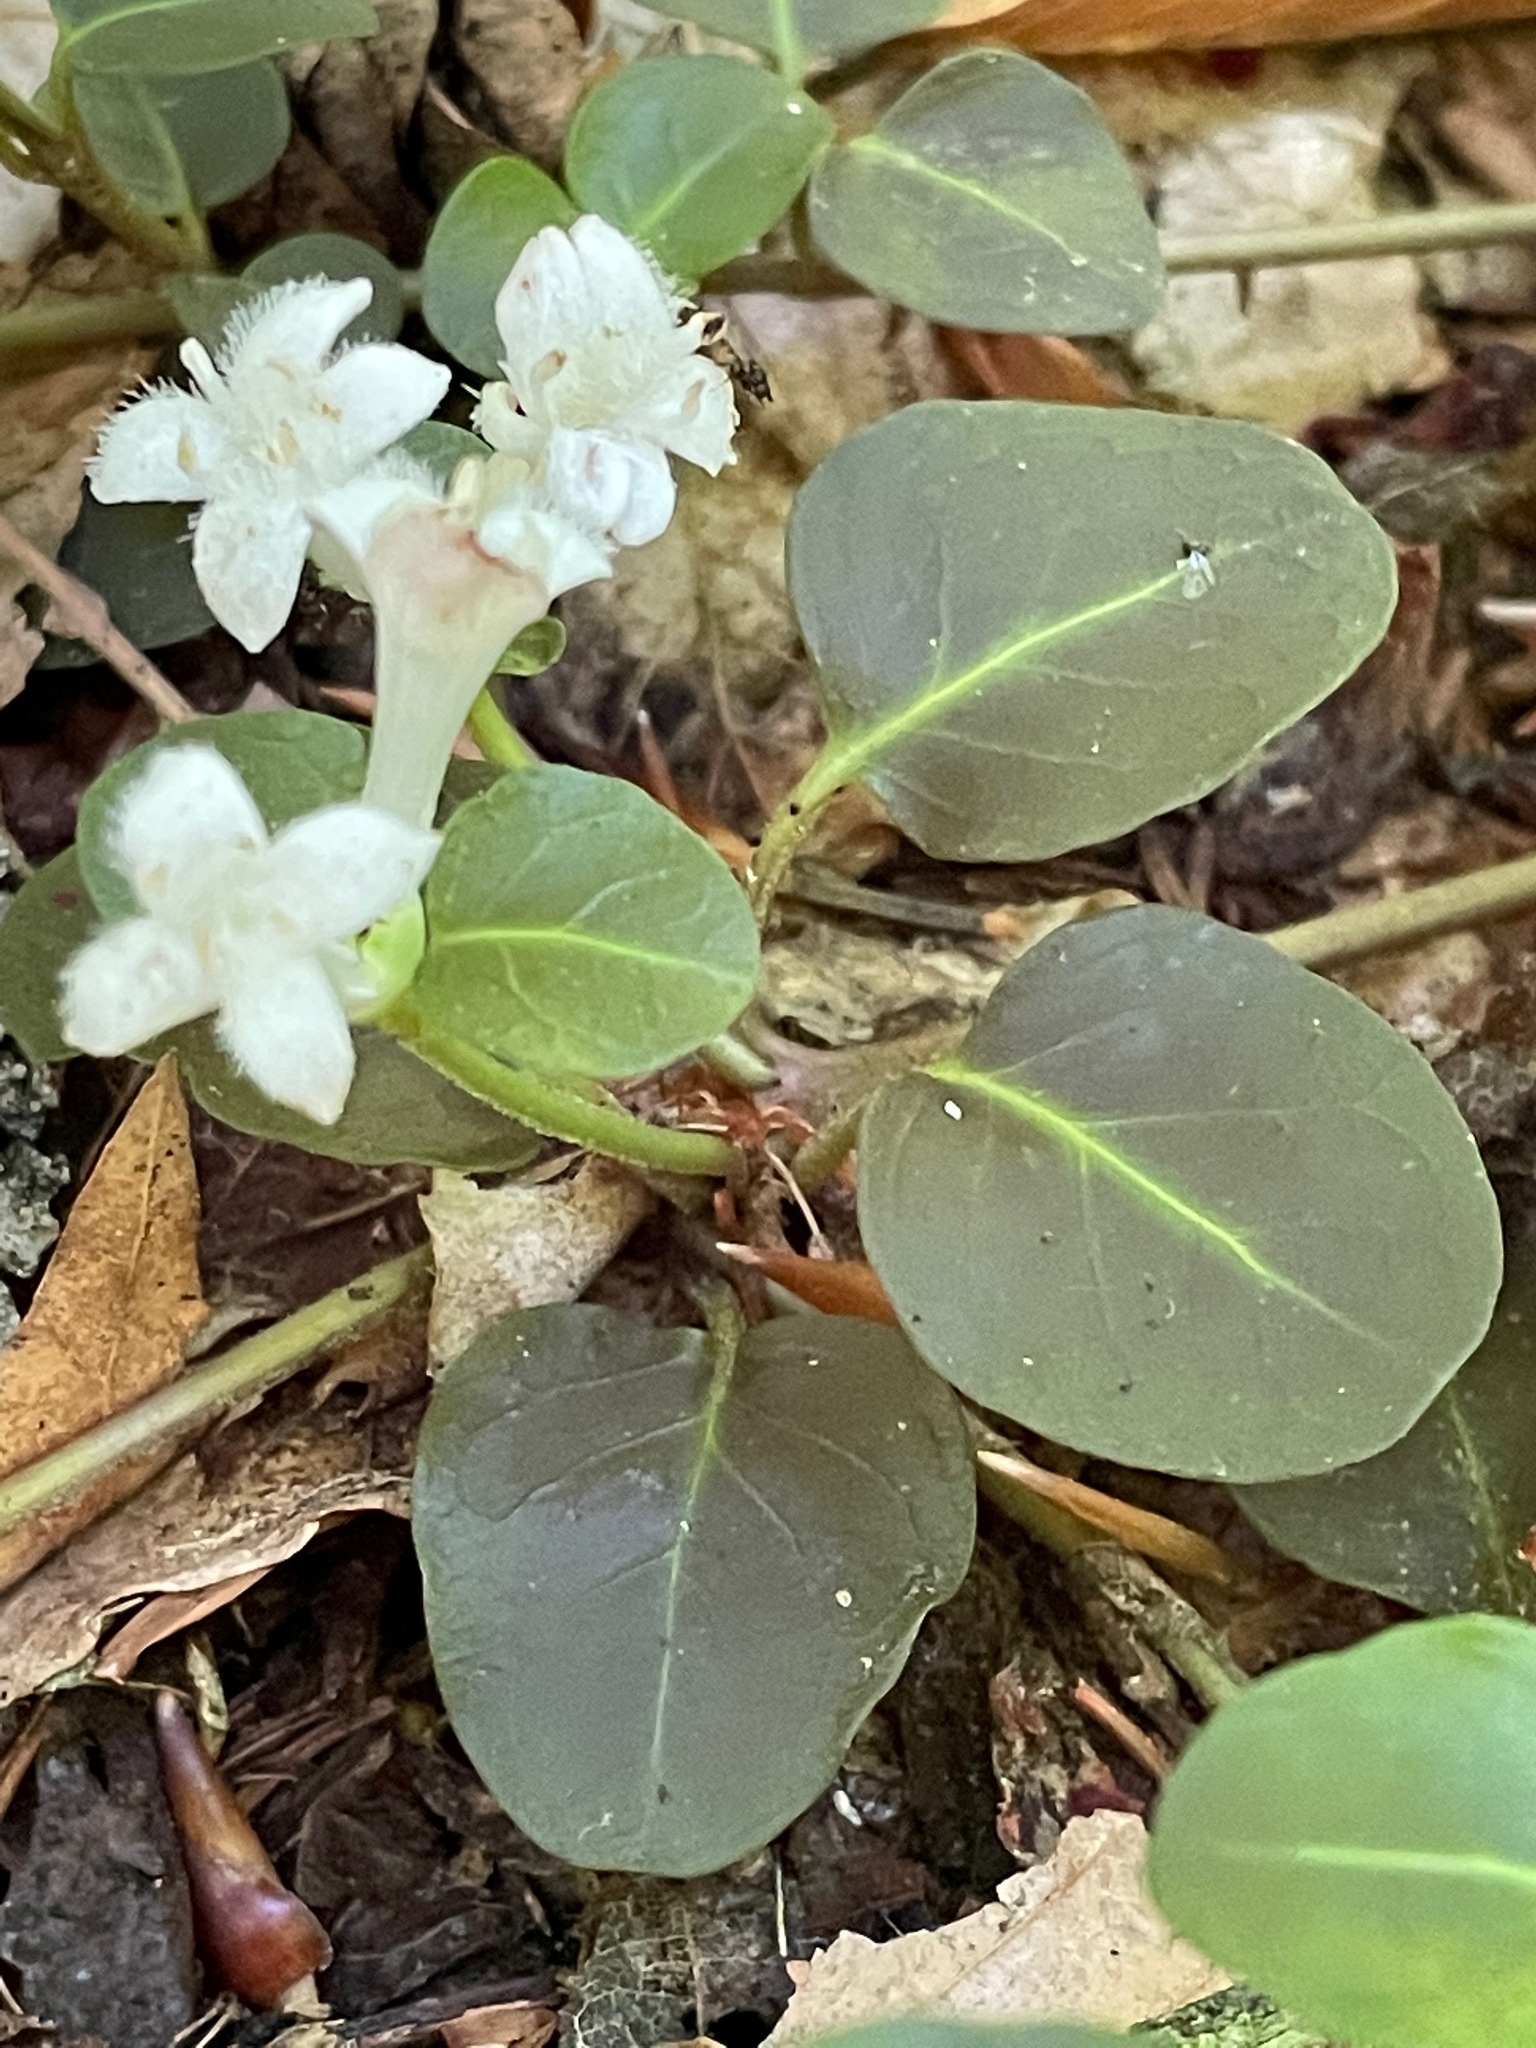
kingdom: Plantae
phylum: Tracheophyta
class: Magnoliopsida
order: Gentianales
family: Rubiaceae
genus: Mitchella
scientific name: Mitchella repens
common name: Partridge-berry
